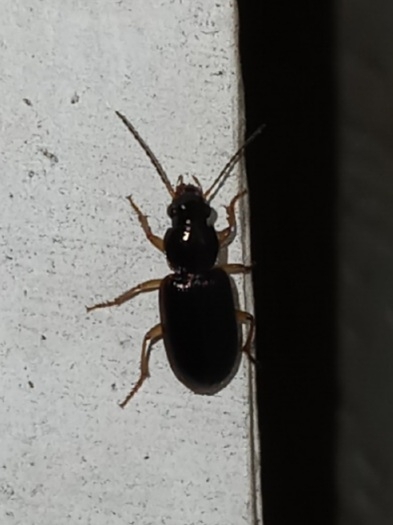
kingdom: Animalia
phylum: Arthropoda
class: Insecta
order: Coleoptera
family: Carabidae
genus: Stenolophus
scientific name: Stenolophus ochropezus
